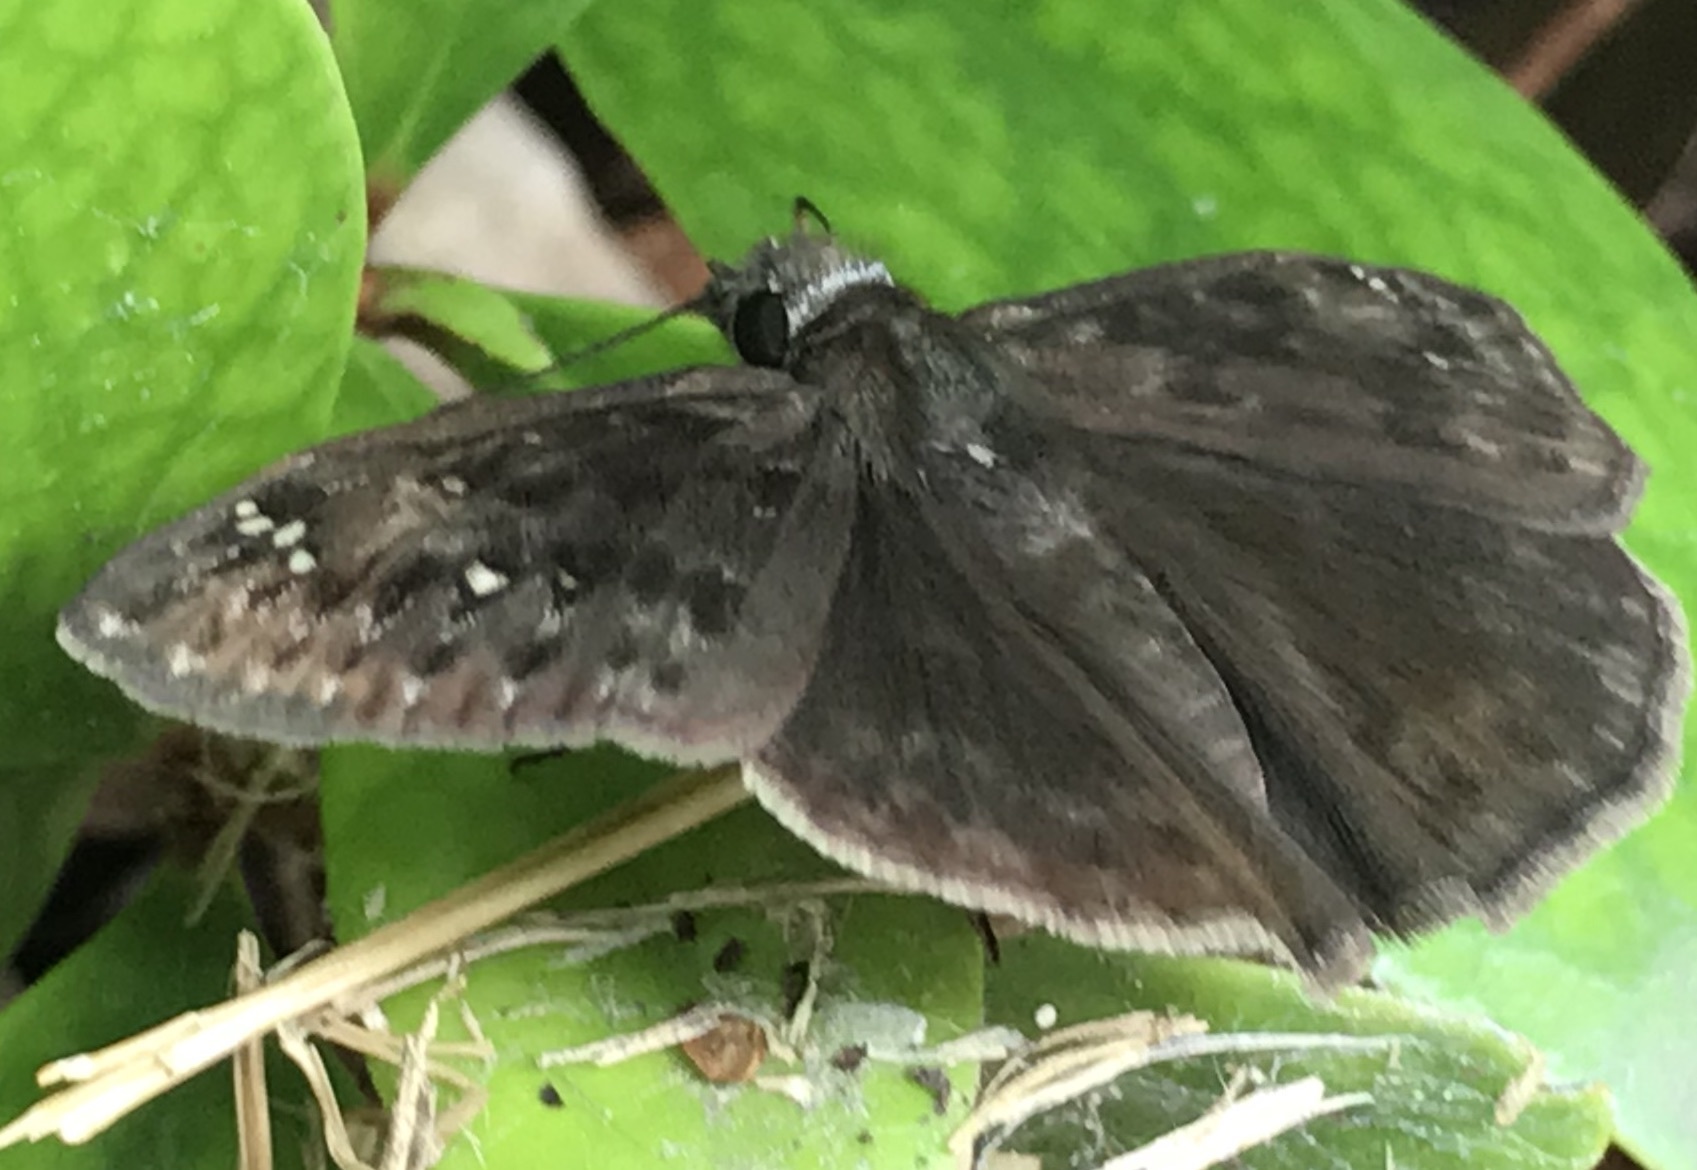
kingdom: Animalia
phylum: Arthropoda
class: Insecta
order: Lepidoptera
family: Hesperiidae
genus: Erynnis
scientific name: Erynnis horatius
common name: Horace's duskywing
